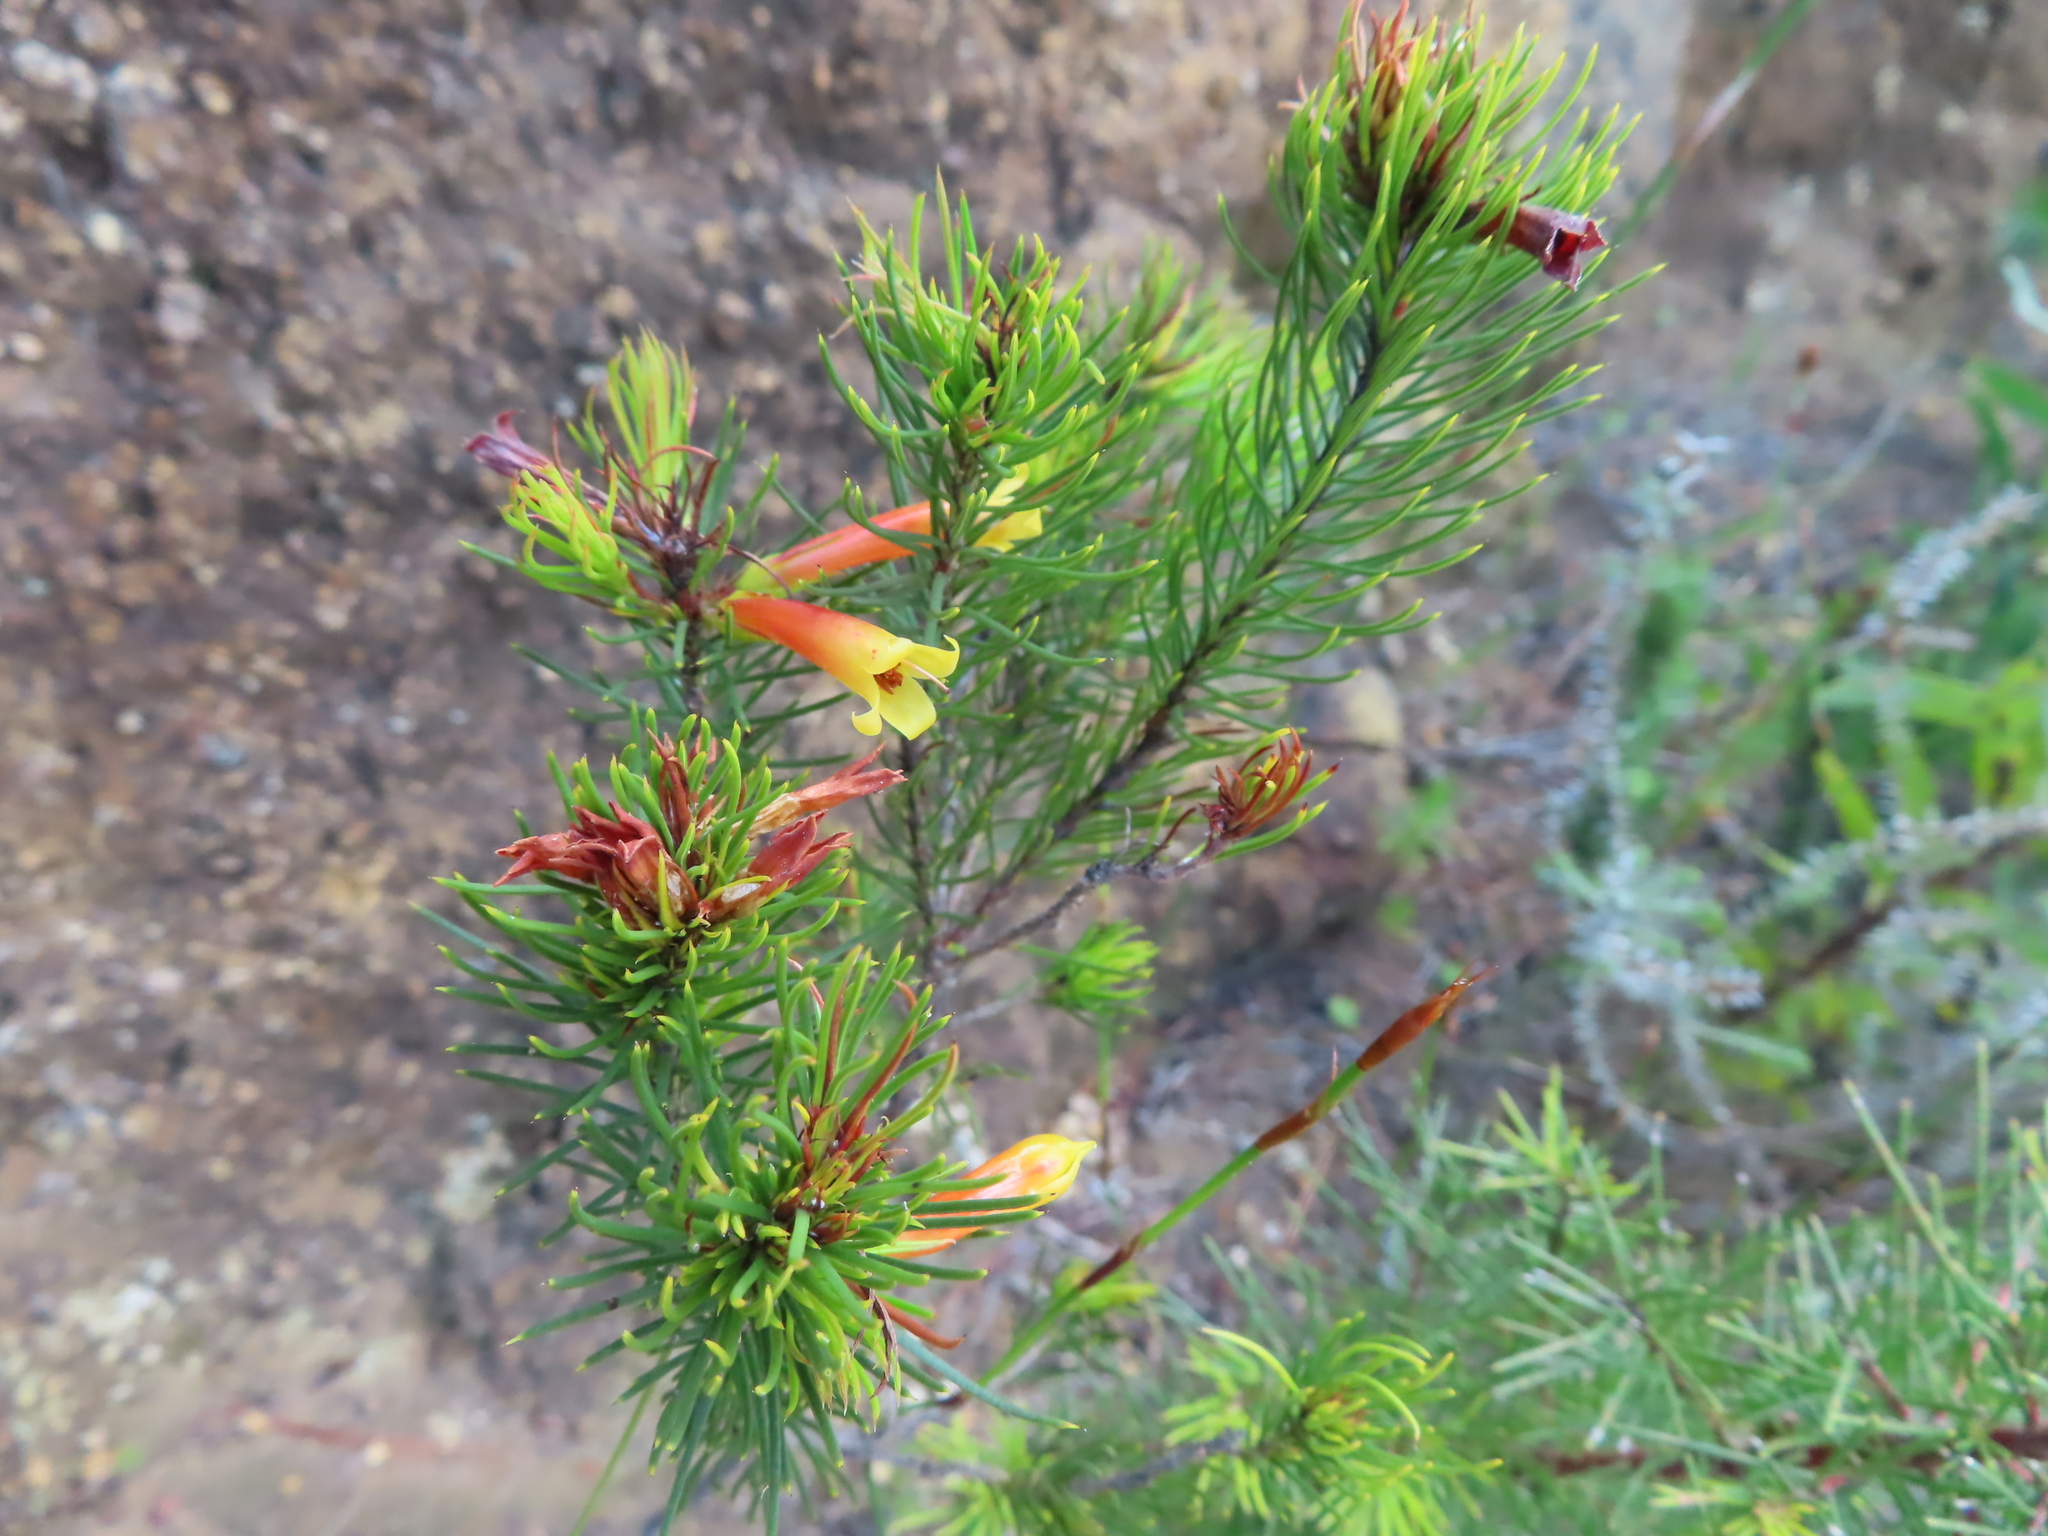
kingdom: Plantae
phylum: Tracheophyta
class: Magnoliopsida
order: Ericales
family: Ericaceae
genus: Erica
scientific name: Erica grandiflora
